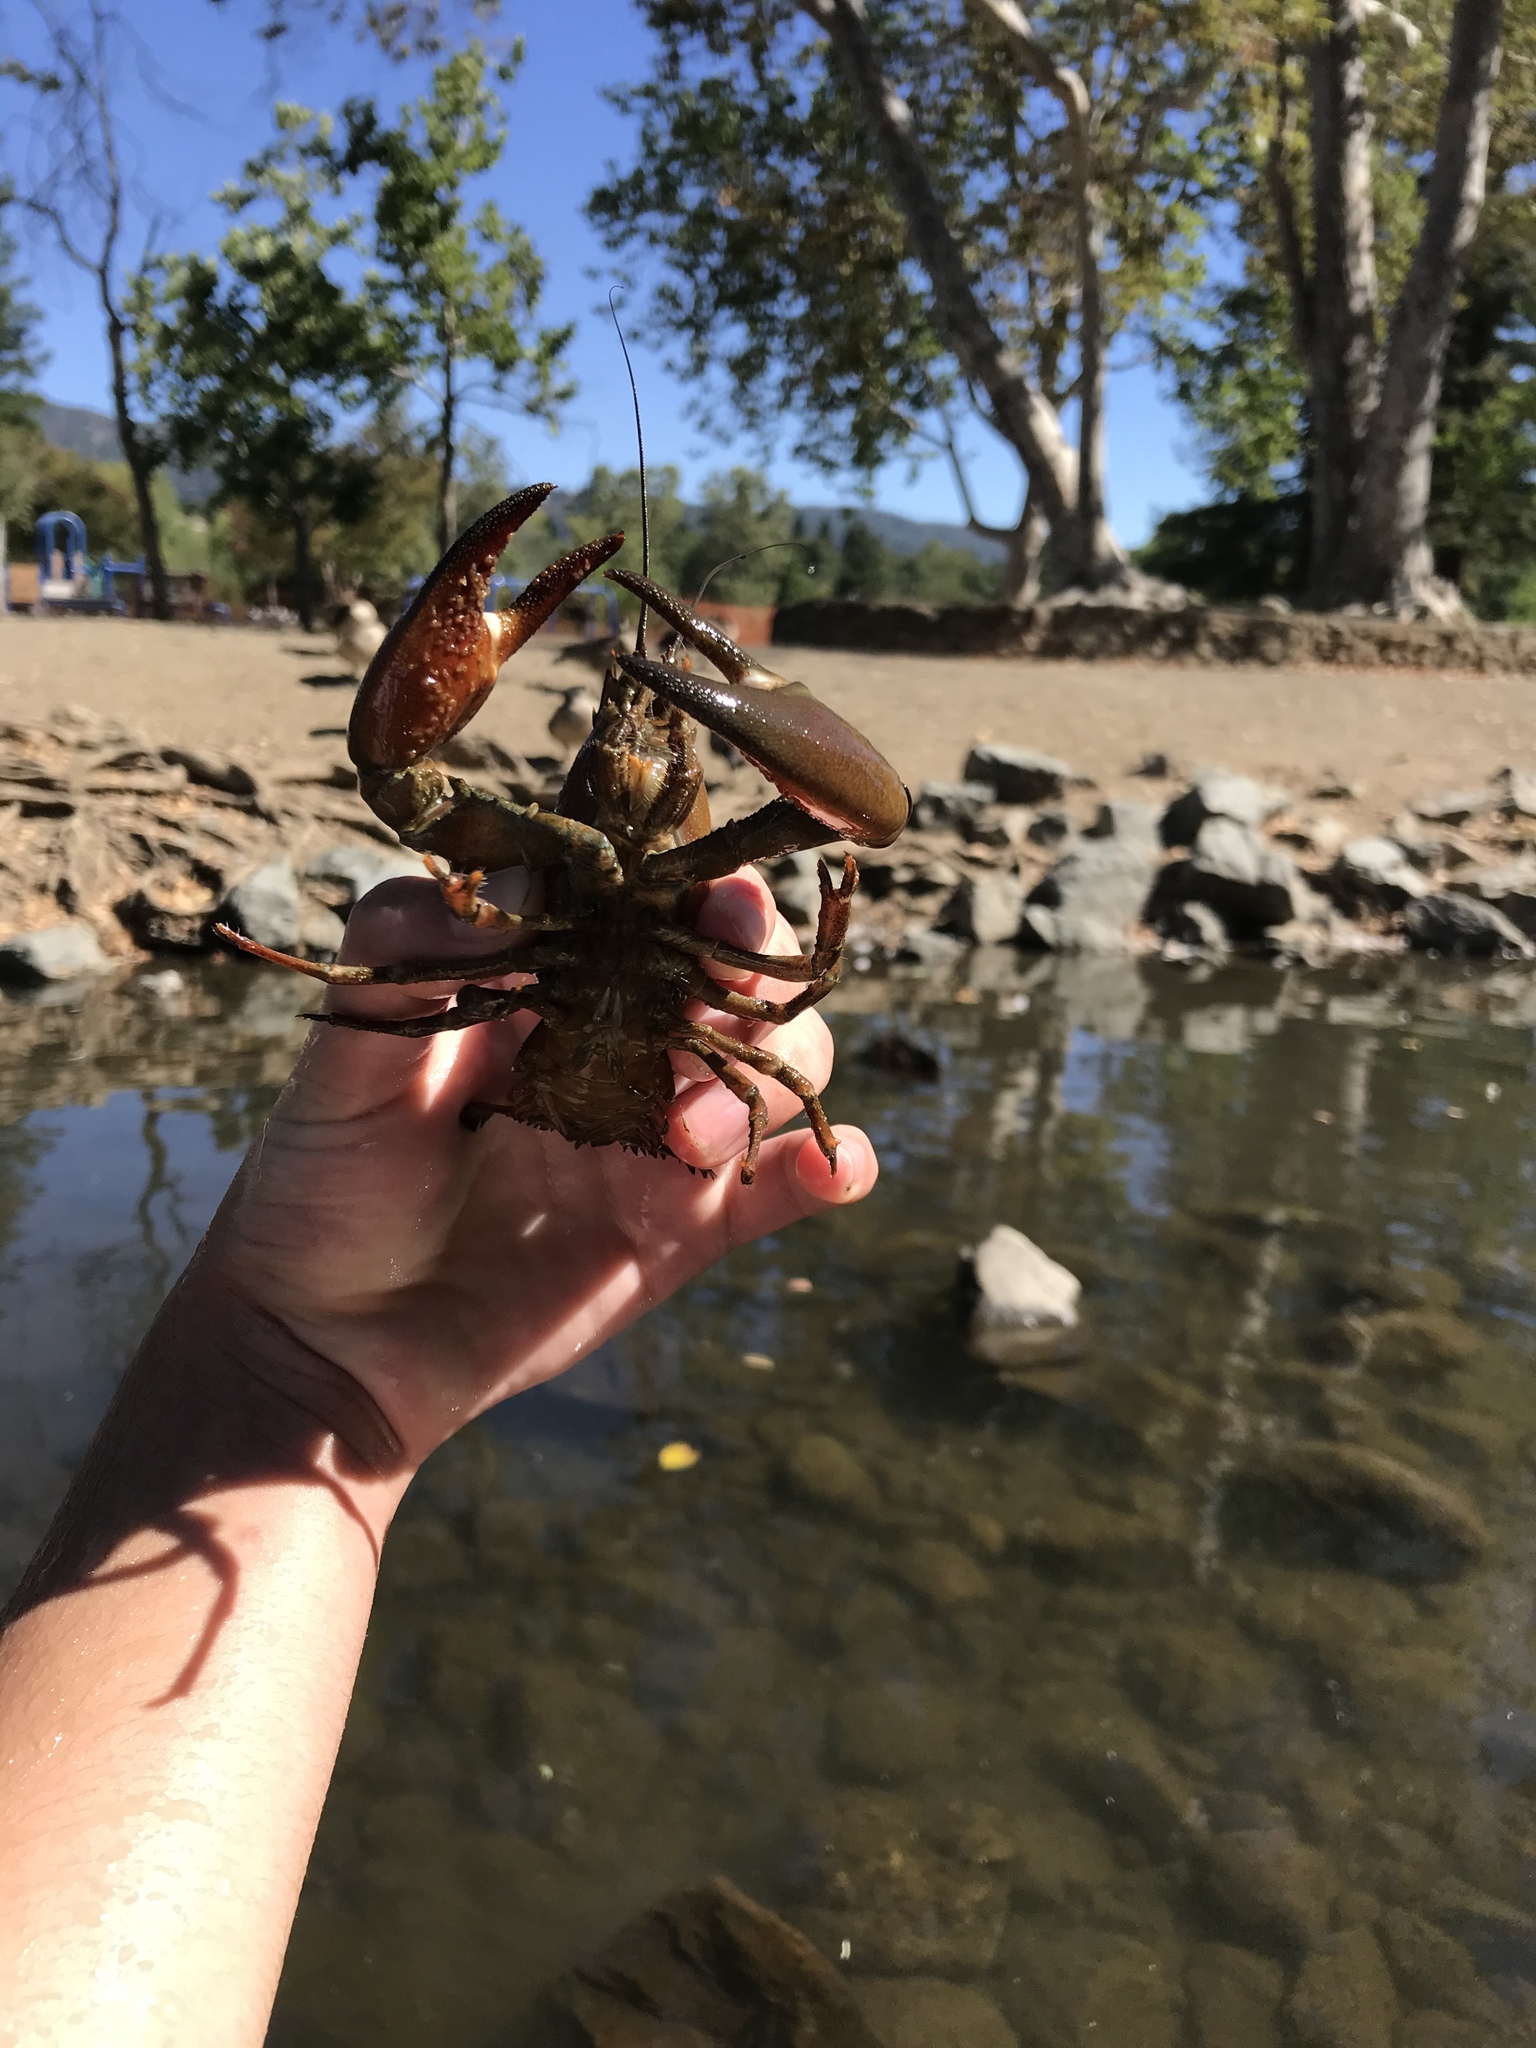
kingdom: Animalia
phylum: Arthropoda
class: Malacostraca
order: Decapoda
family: Astacidae
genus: Pacifastacus
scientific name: Pacifastacus leniusculus
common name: Signal crayfish
